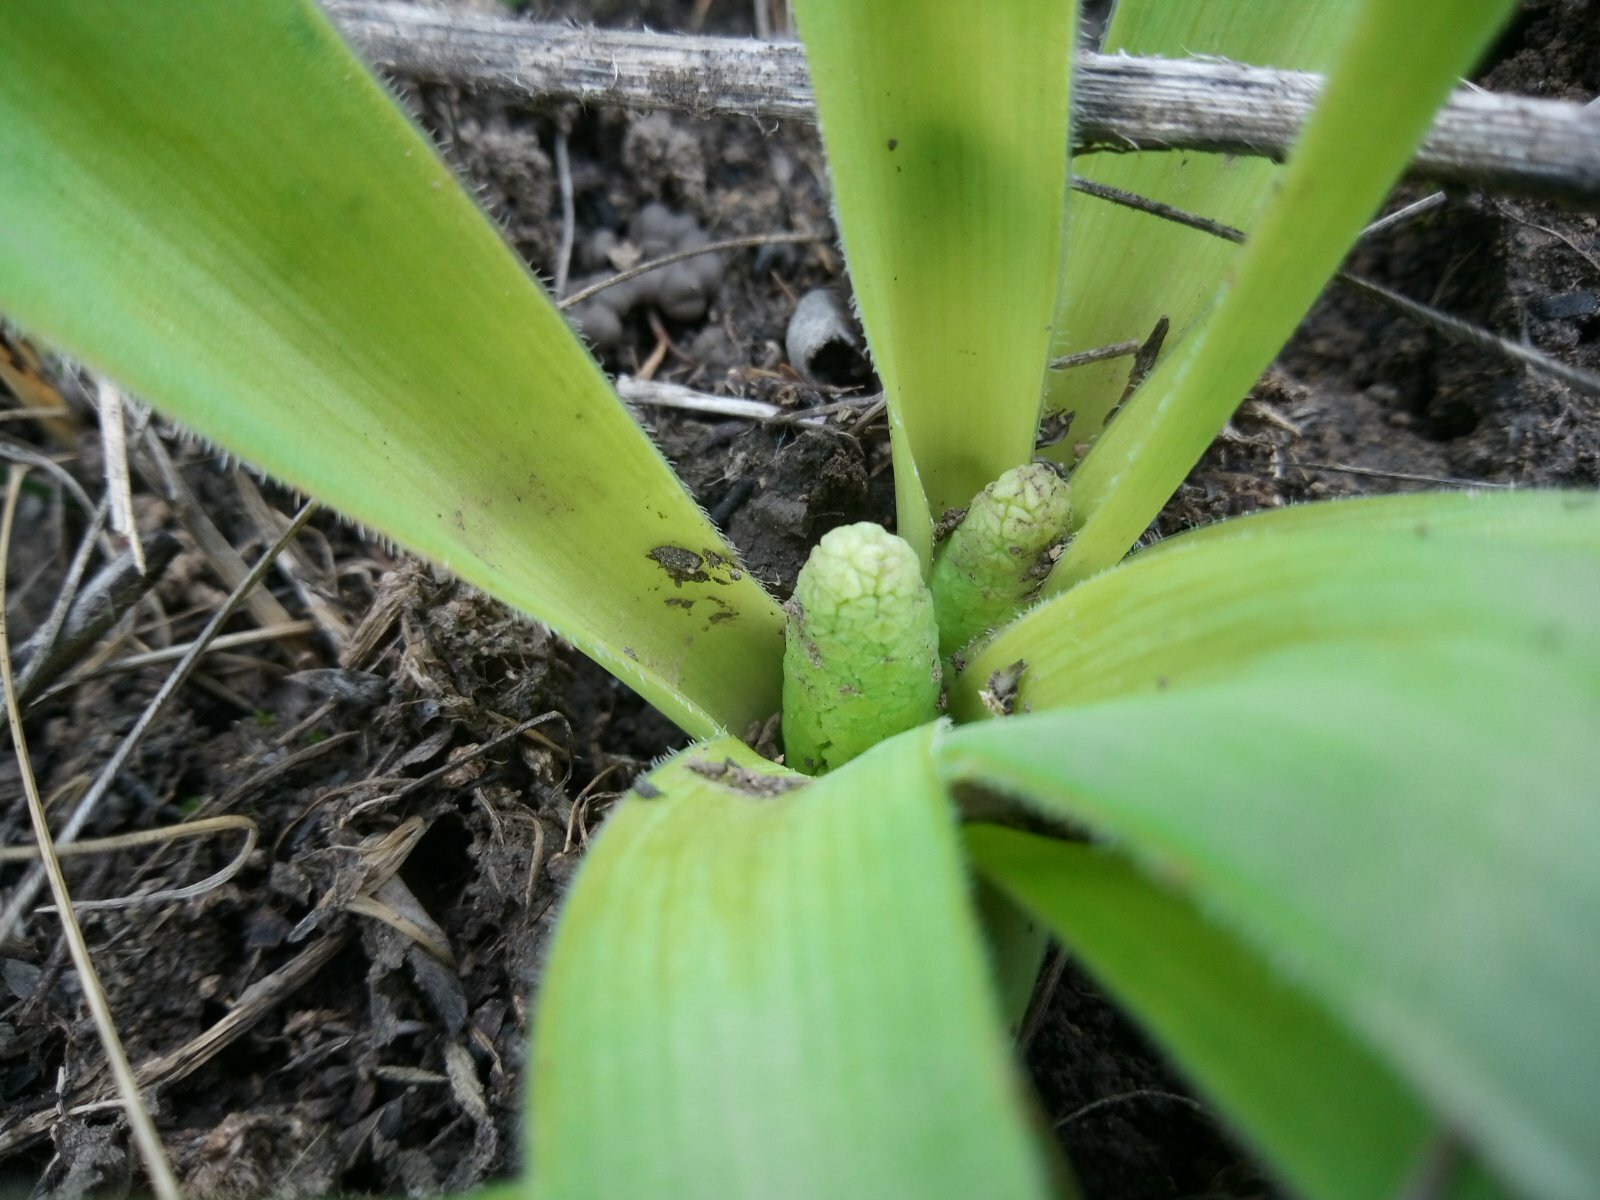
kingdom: Plantae
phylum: Tracheophyta
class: Liliopsida
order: Asparagales
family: Asparagaceae
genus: Bellevalia
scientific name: Bellevalia speciosa
